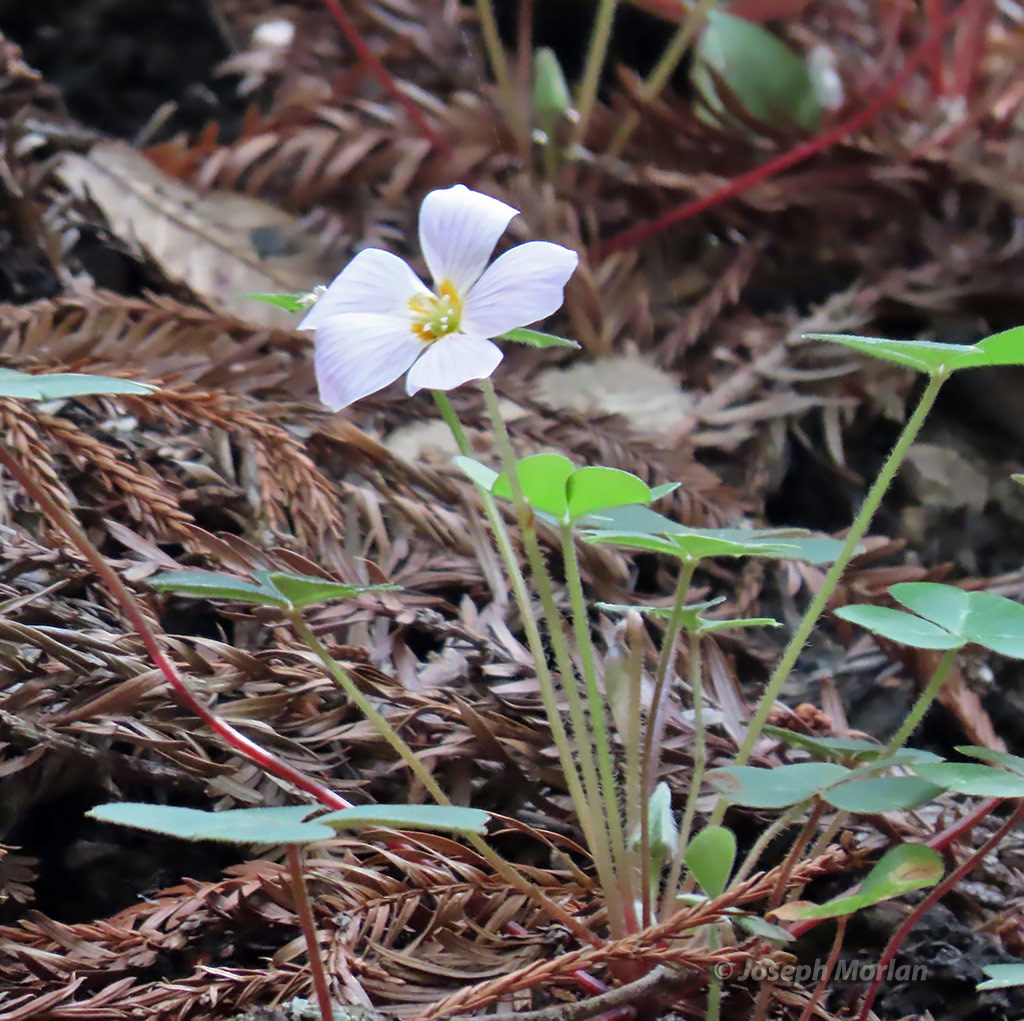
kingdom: Plantae
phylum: Tracheophyta
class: Magnoliopsida
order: Oxalidales
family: Oxalidaceae
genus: Oxalis
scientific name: Oxalis oregana
